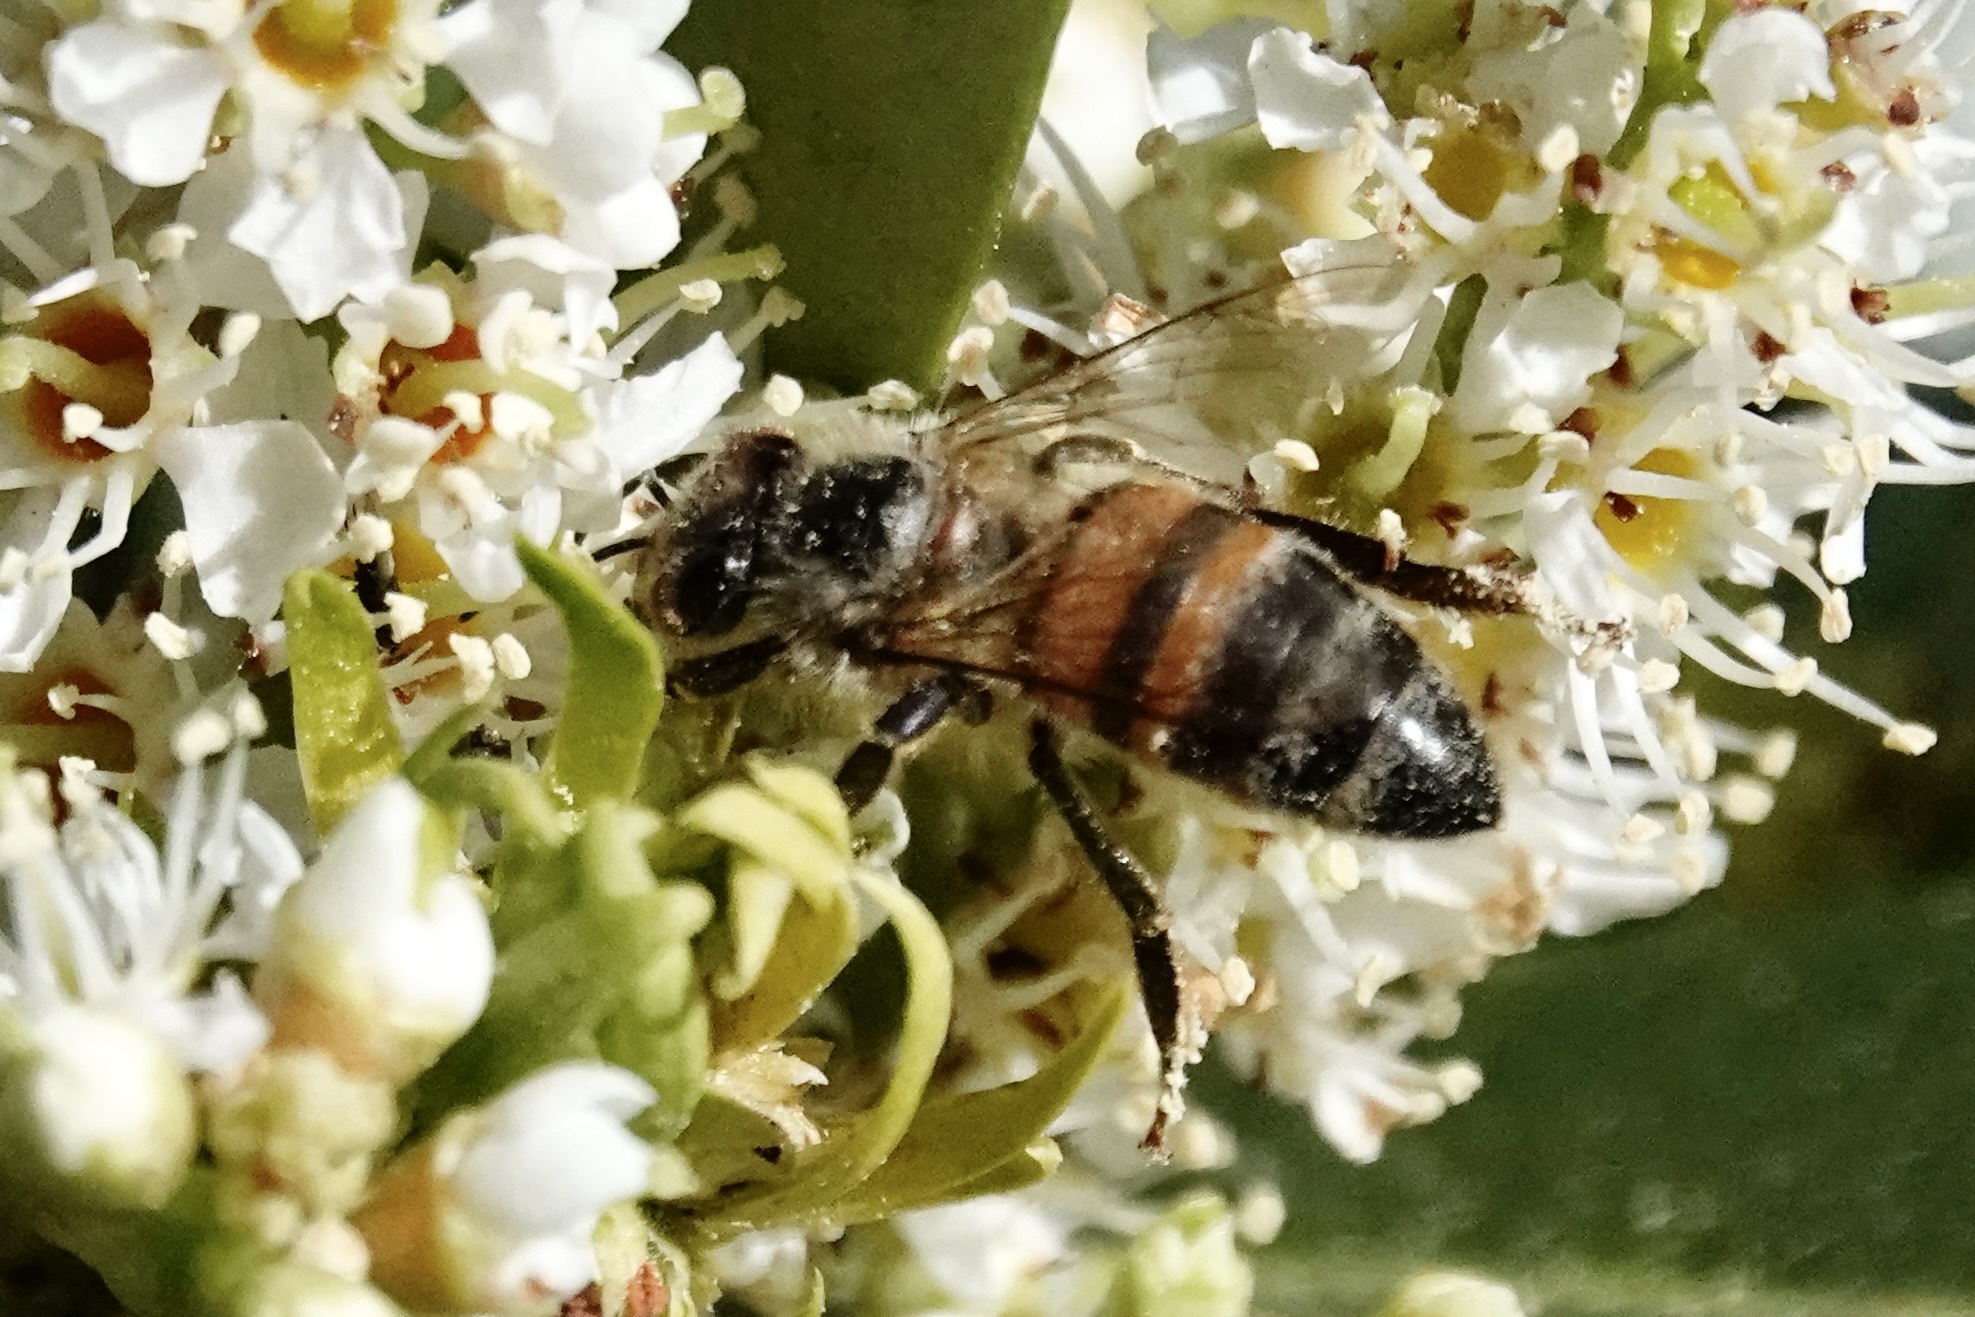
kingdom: Animalia
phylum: Arthropoda
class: Insecta
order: Hymenoptera
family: Apidae
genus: Apis
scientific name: Apis mellifera
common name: Honey bee
